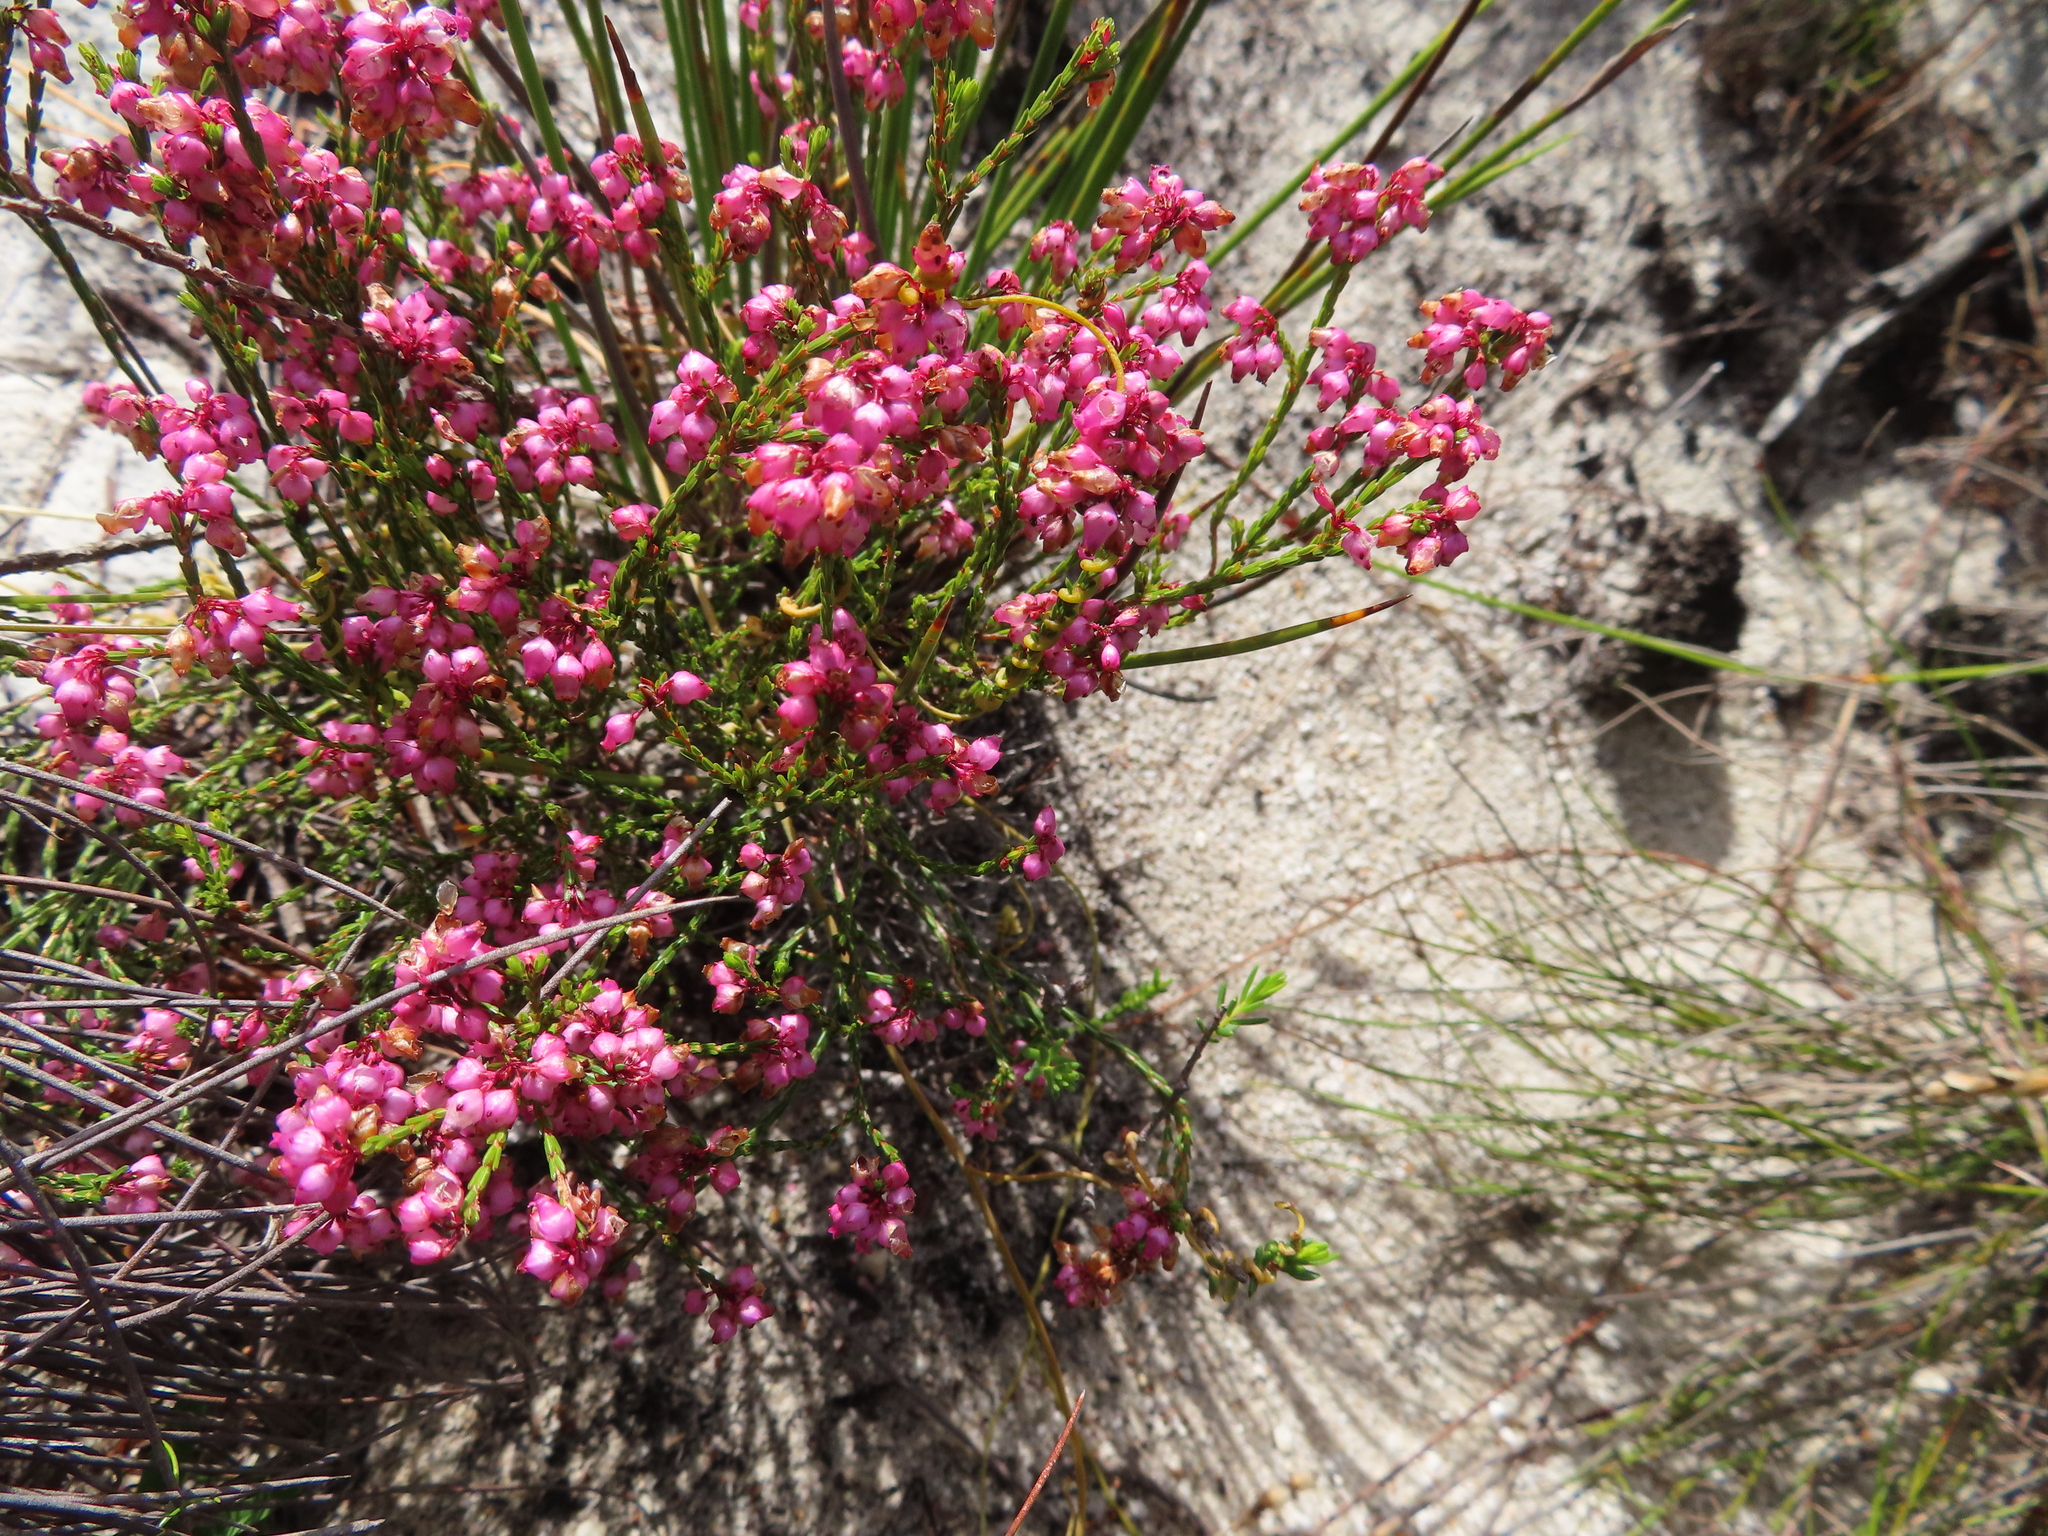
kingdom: Plantae
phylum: Tracheophyta
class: Magnoliopsida
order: Ericales
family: Ericaceae
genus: Erica
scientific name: Erica rhopalantha
